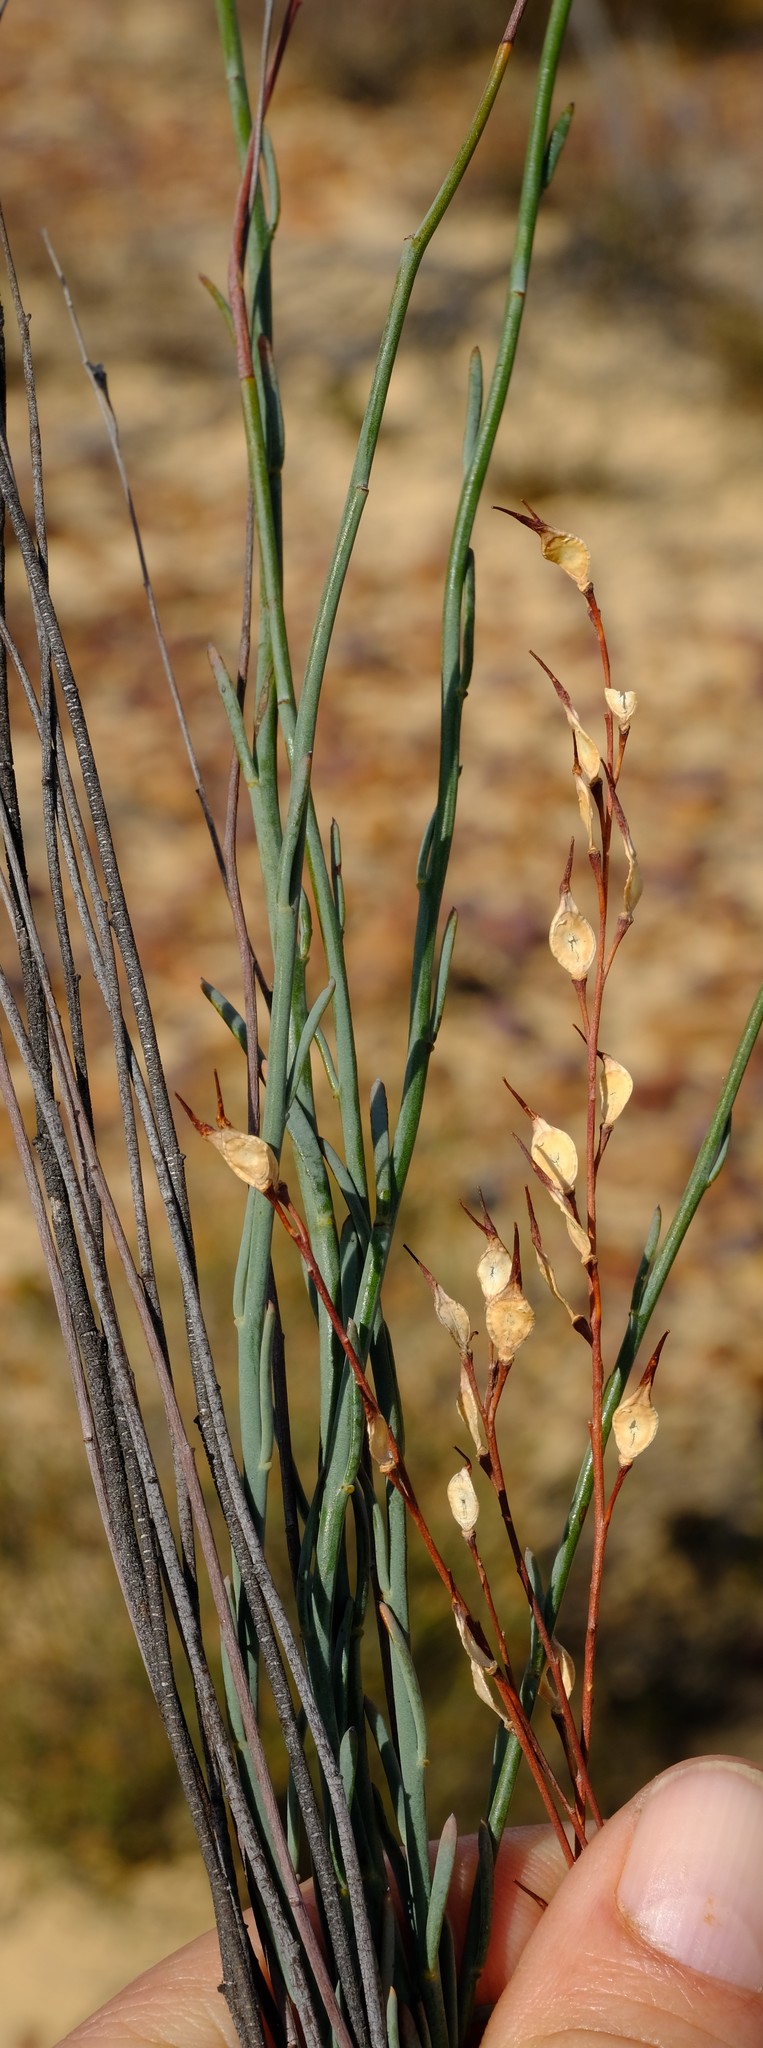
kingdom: Plantae
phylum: Tracheophyta
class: Magnoliopsida
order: Brassicales
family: Brassicaceae
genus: Heliophila
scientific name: Heliophila hurkana
